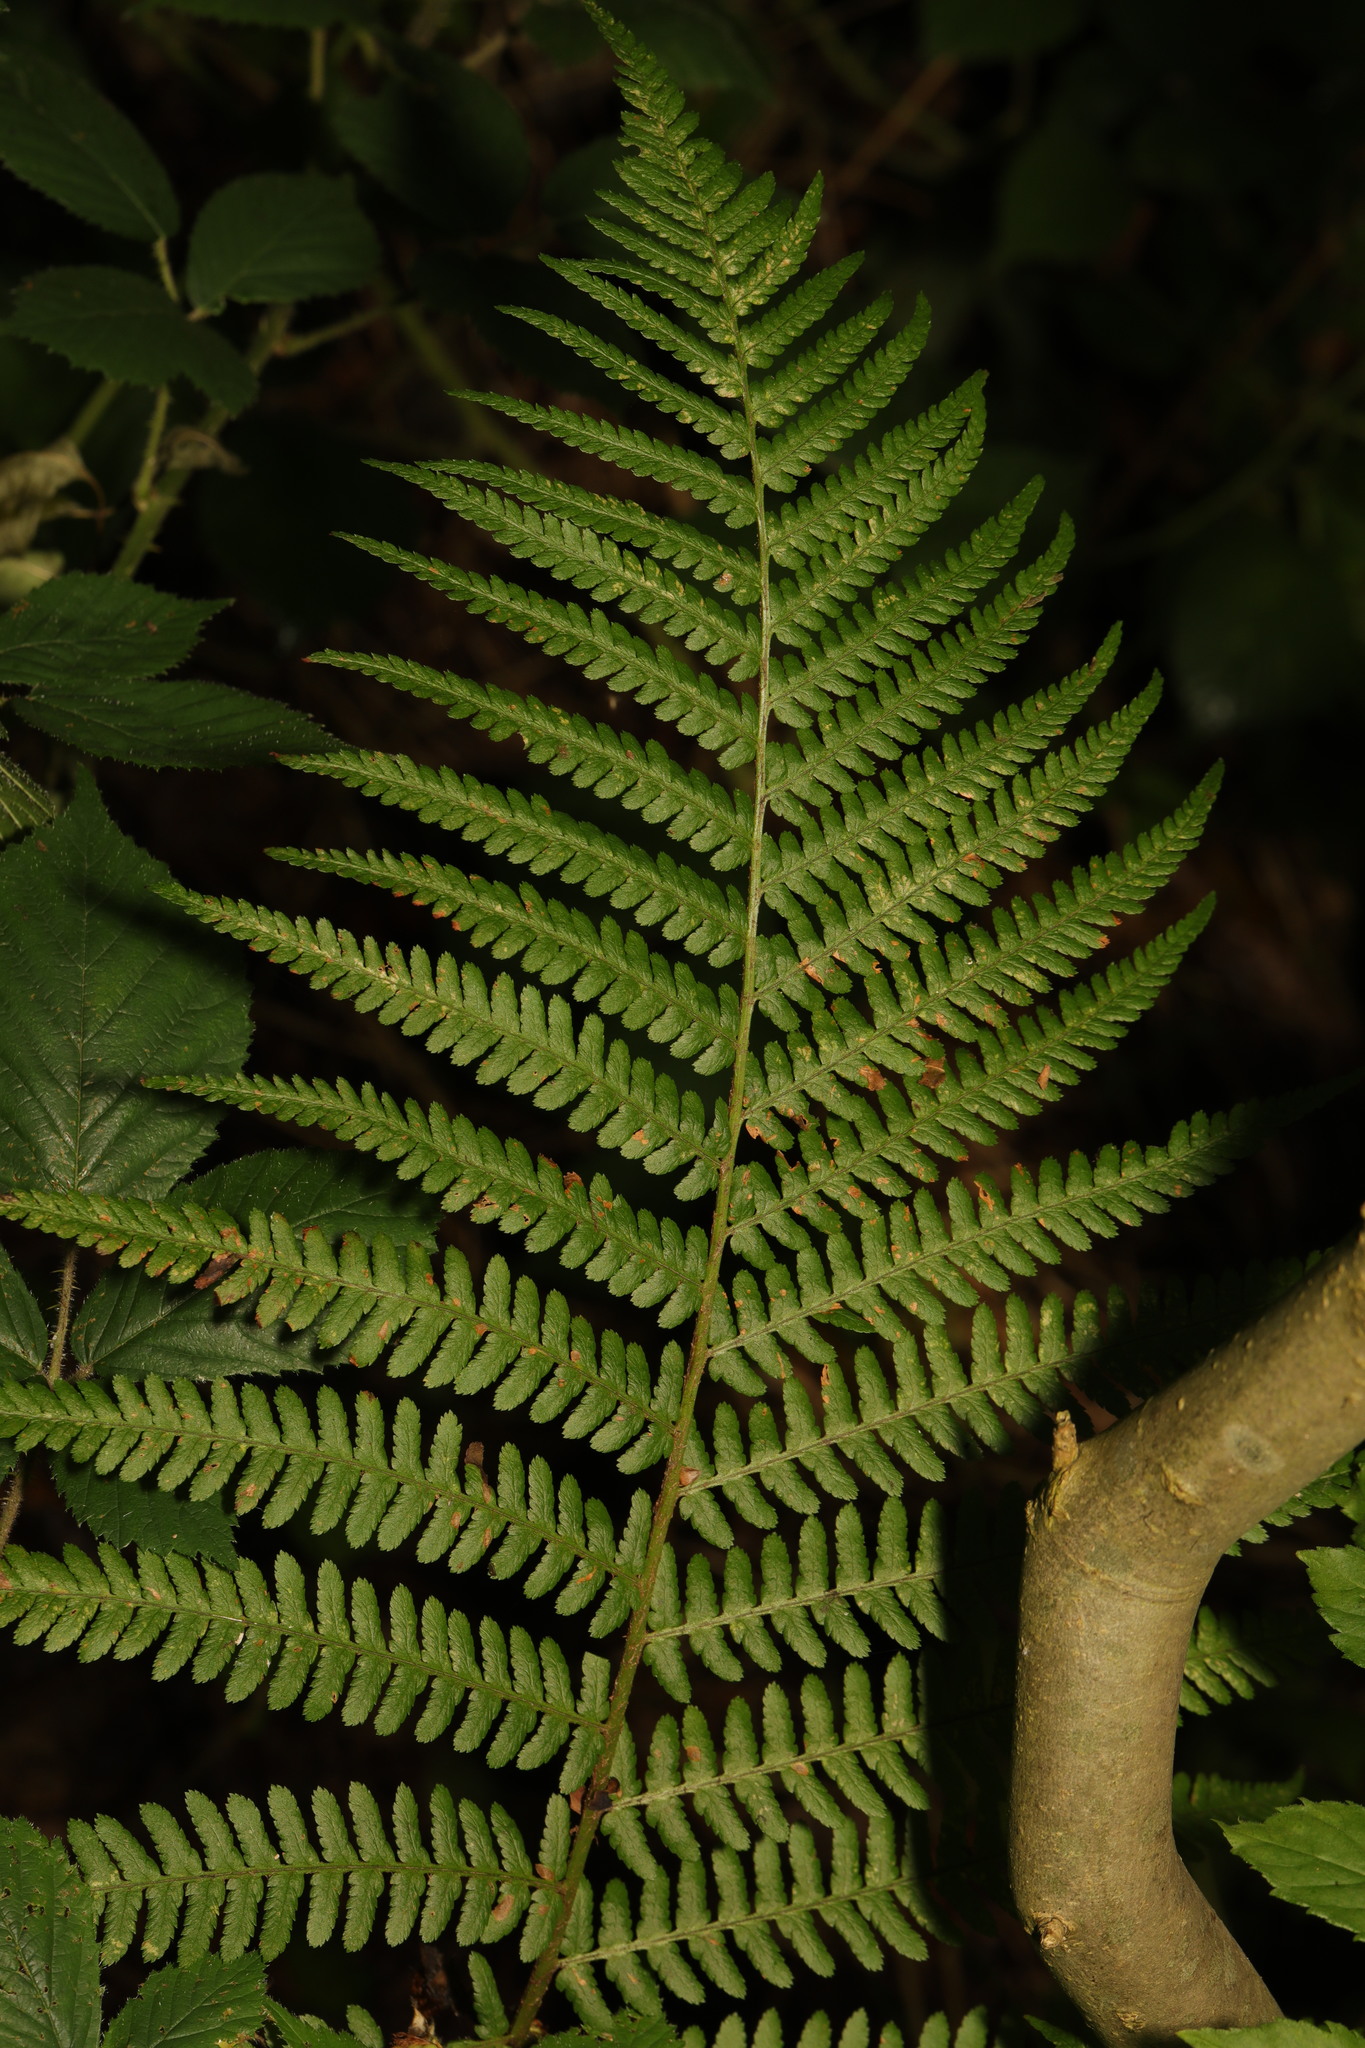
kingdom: Plantae
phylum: Tracheophyta
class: Polypodiopsida
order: Polypodiales
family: Dryopteridaceae
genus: Dryopteris
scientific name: Dryopteris filix-mas
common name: Male fern
